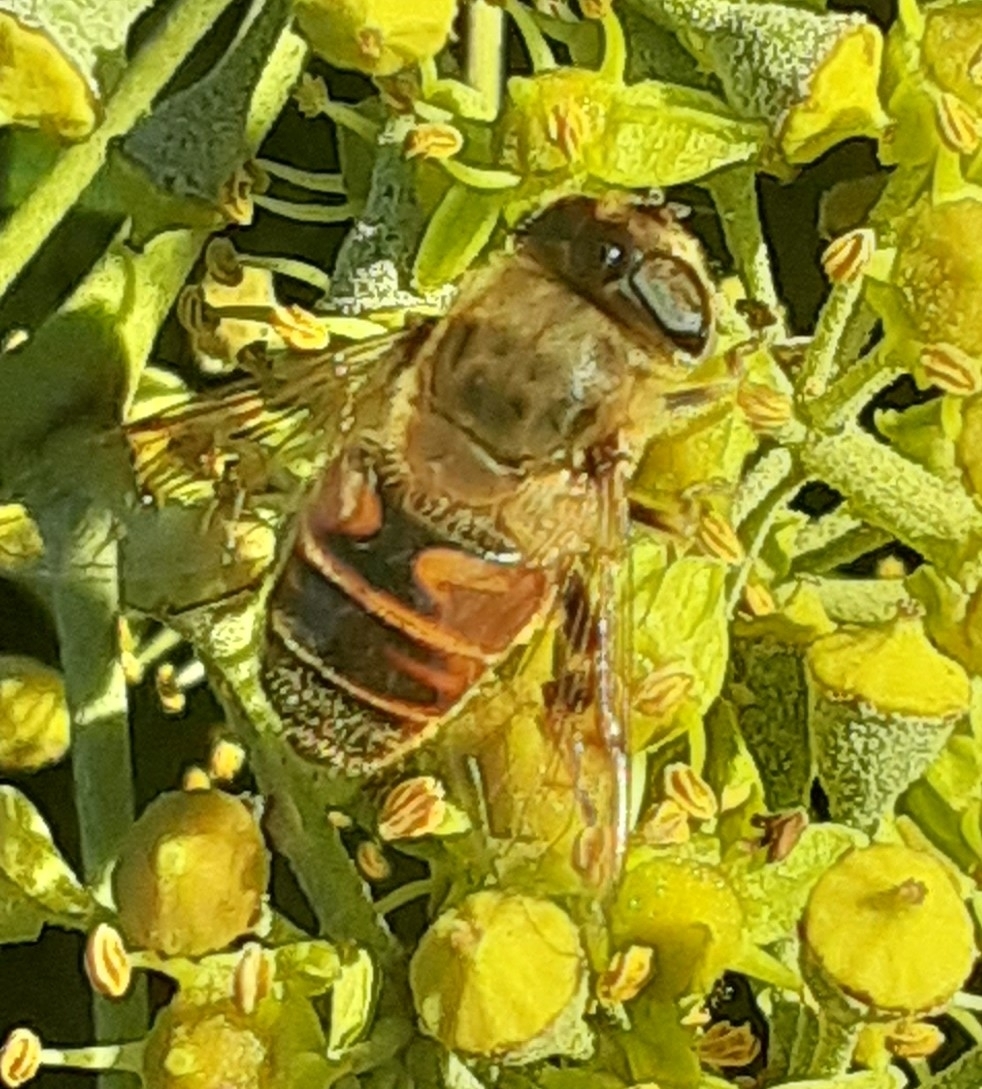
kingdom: Animalia
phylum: Arthropoda
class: Insecta
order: Diptera
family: Syrphidae
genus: Eristalis
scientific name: Eristalis tenax
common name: Drone fly
